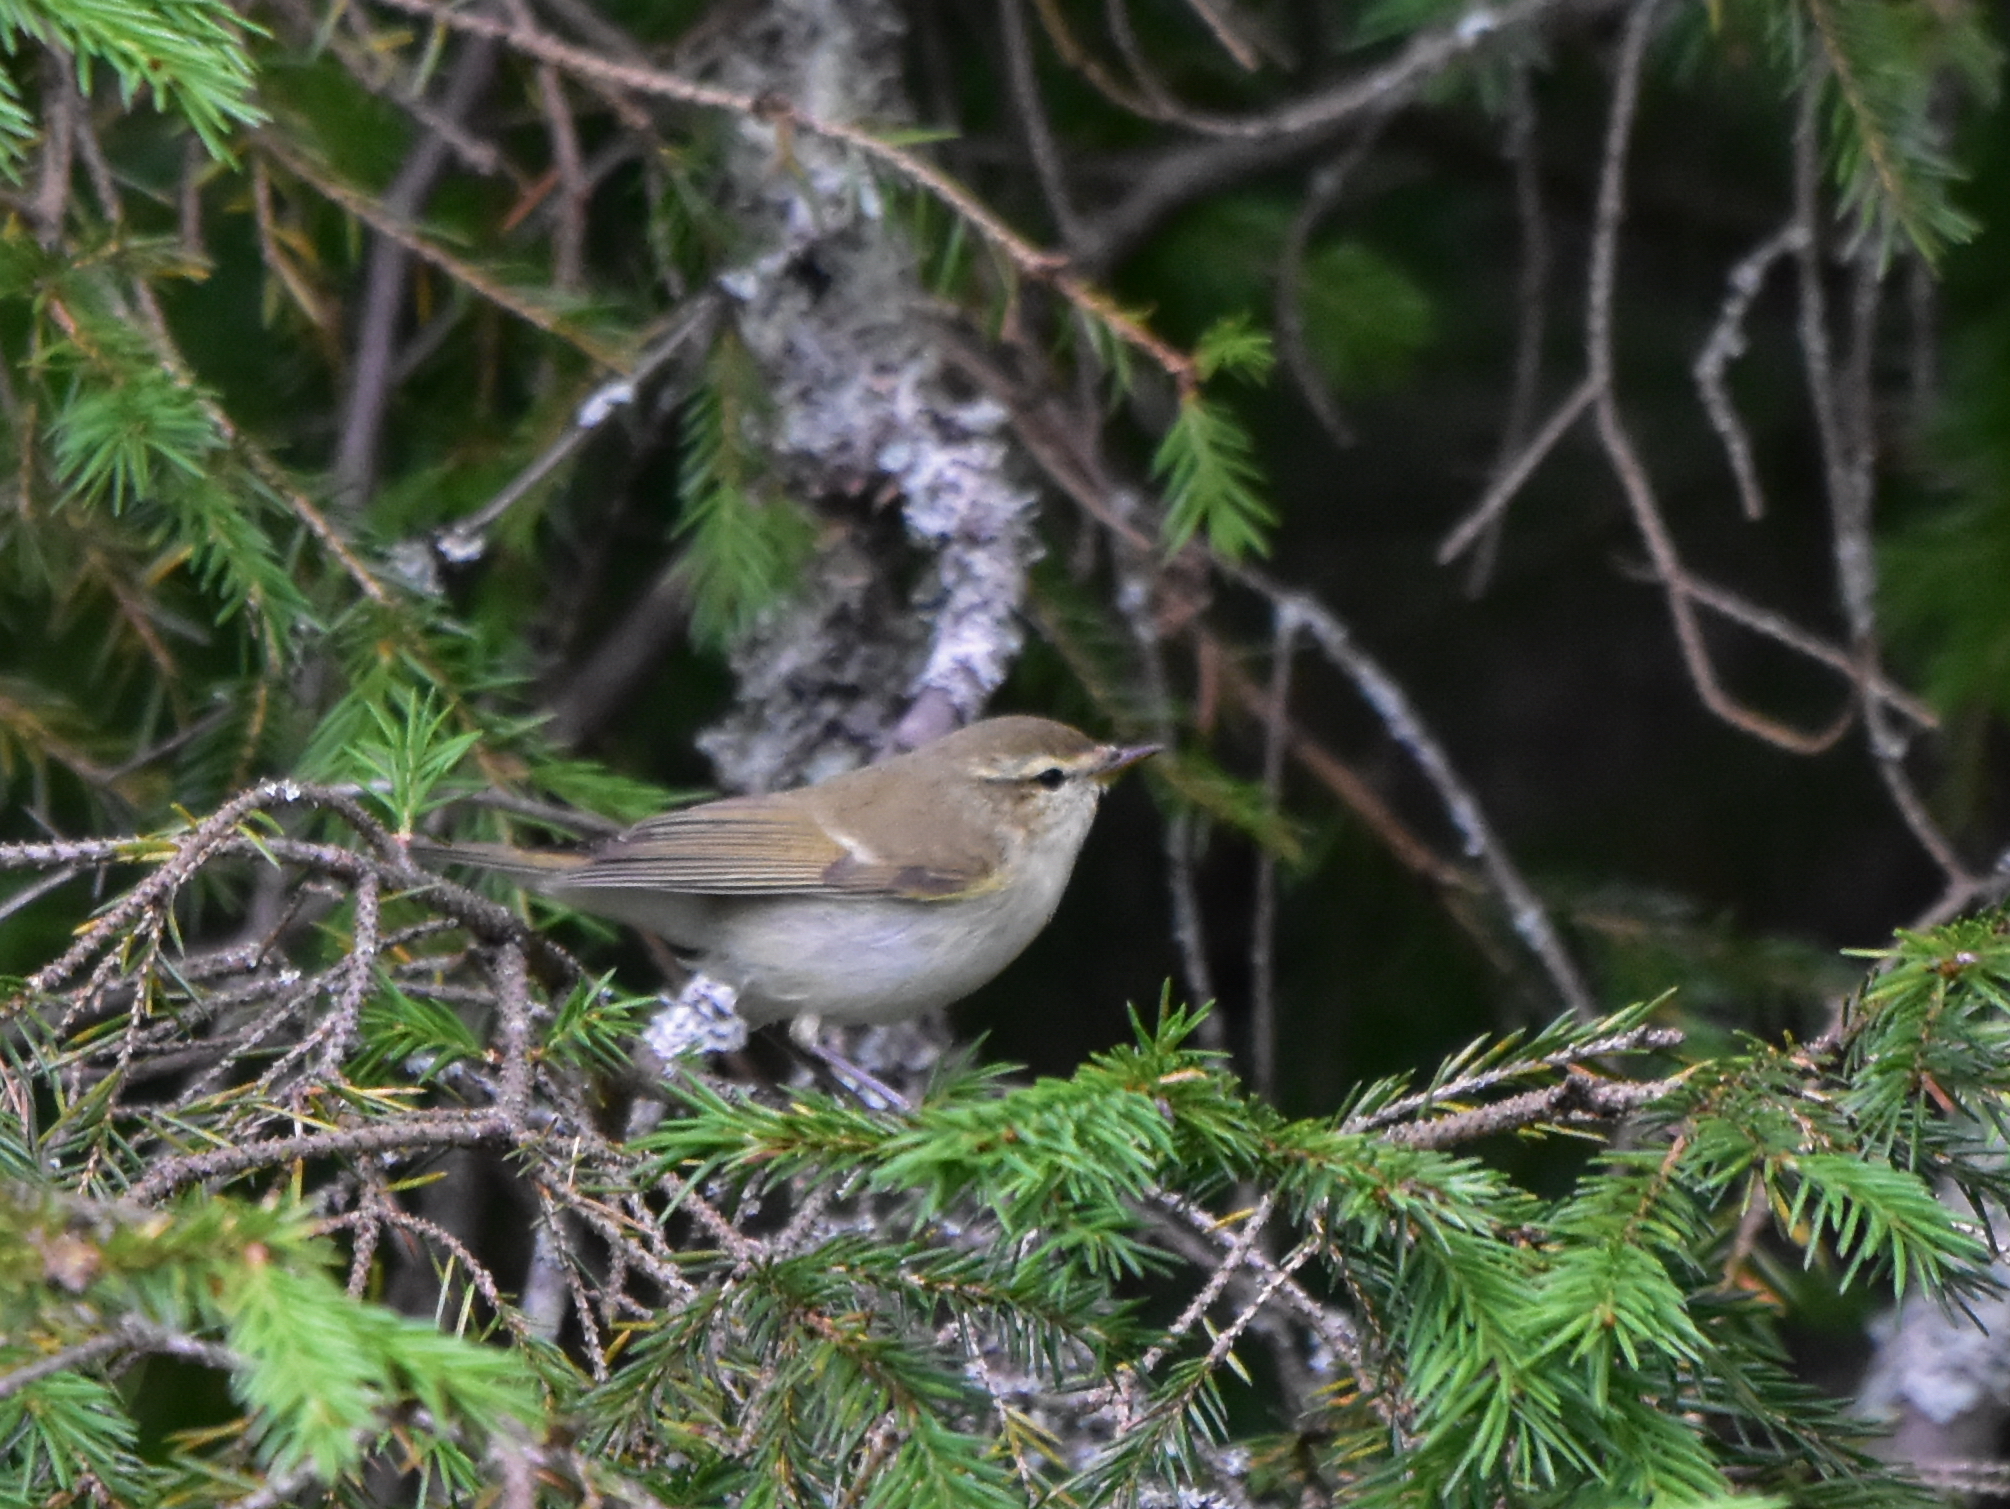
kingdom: Animalia
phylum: Chordata
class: Aves
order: Passeriformes
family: Phylloscopidae
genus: Phylloscopus
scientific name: Phylloscopus trochiloides
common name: Greenish warbler
